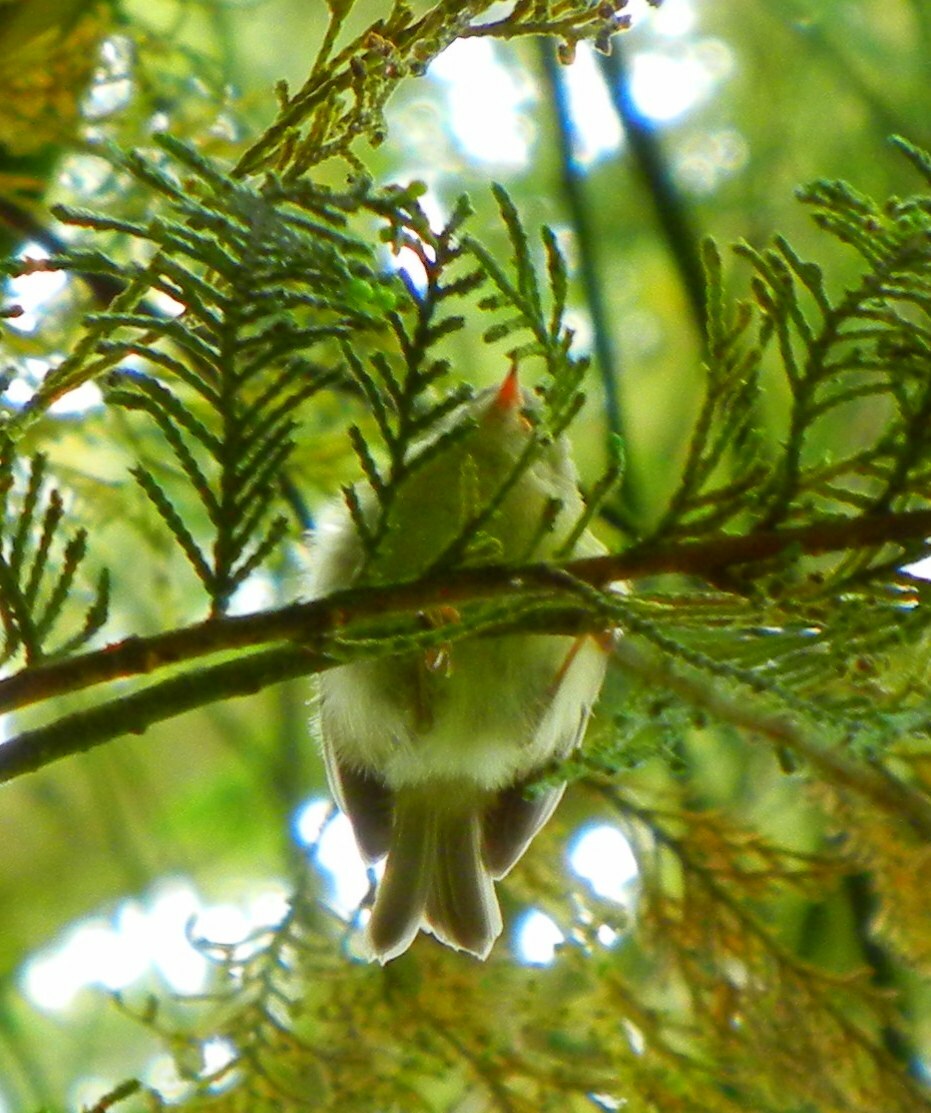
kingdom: Animalia
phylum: Chordata
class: Aves
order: Passeriformes
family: Regulidae
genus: Regulus
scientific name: Regulus regulus
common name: Goldcrest
